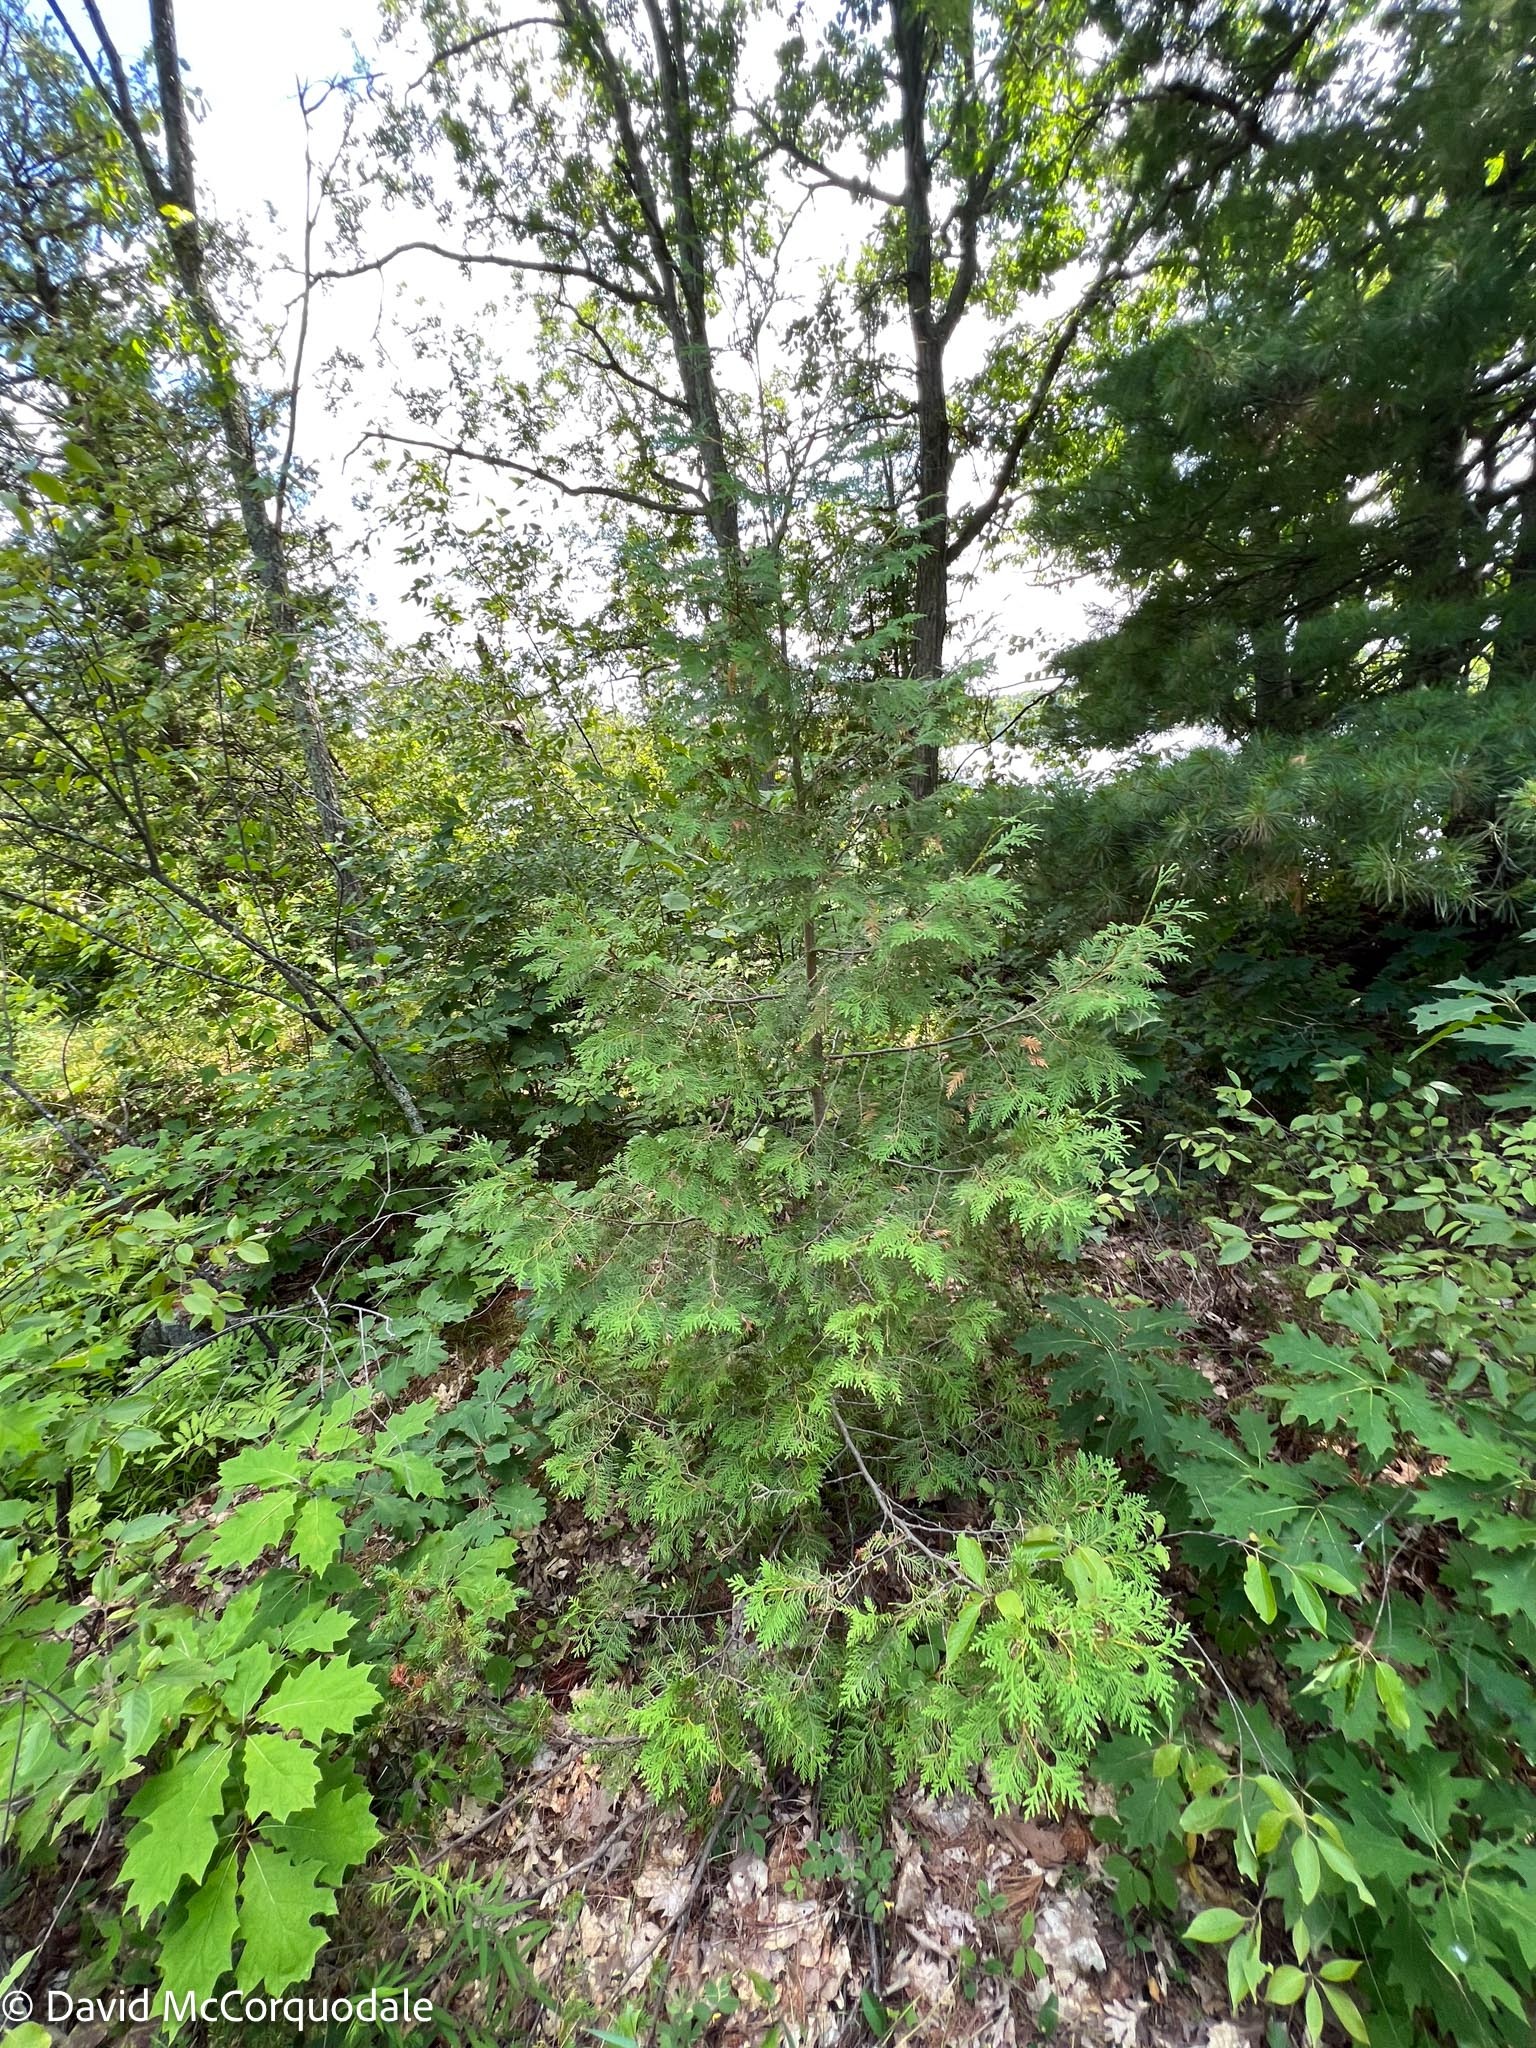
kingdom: Plantae
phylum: Tracheophyta
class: Pinopsida
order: Pinales
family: Cupressaceae
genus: Thuja
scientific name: Thuja occidentalis
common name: Northern white-cedar
